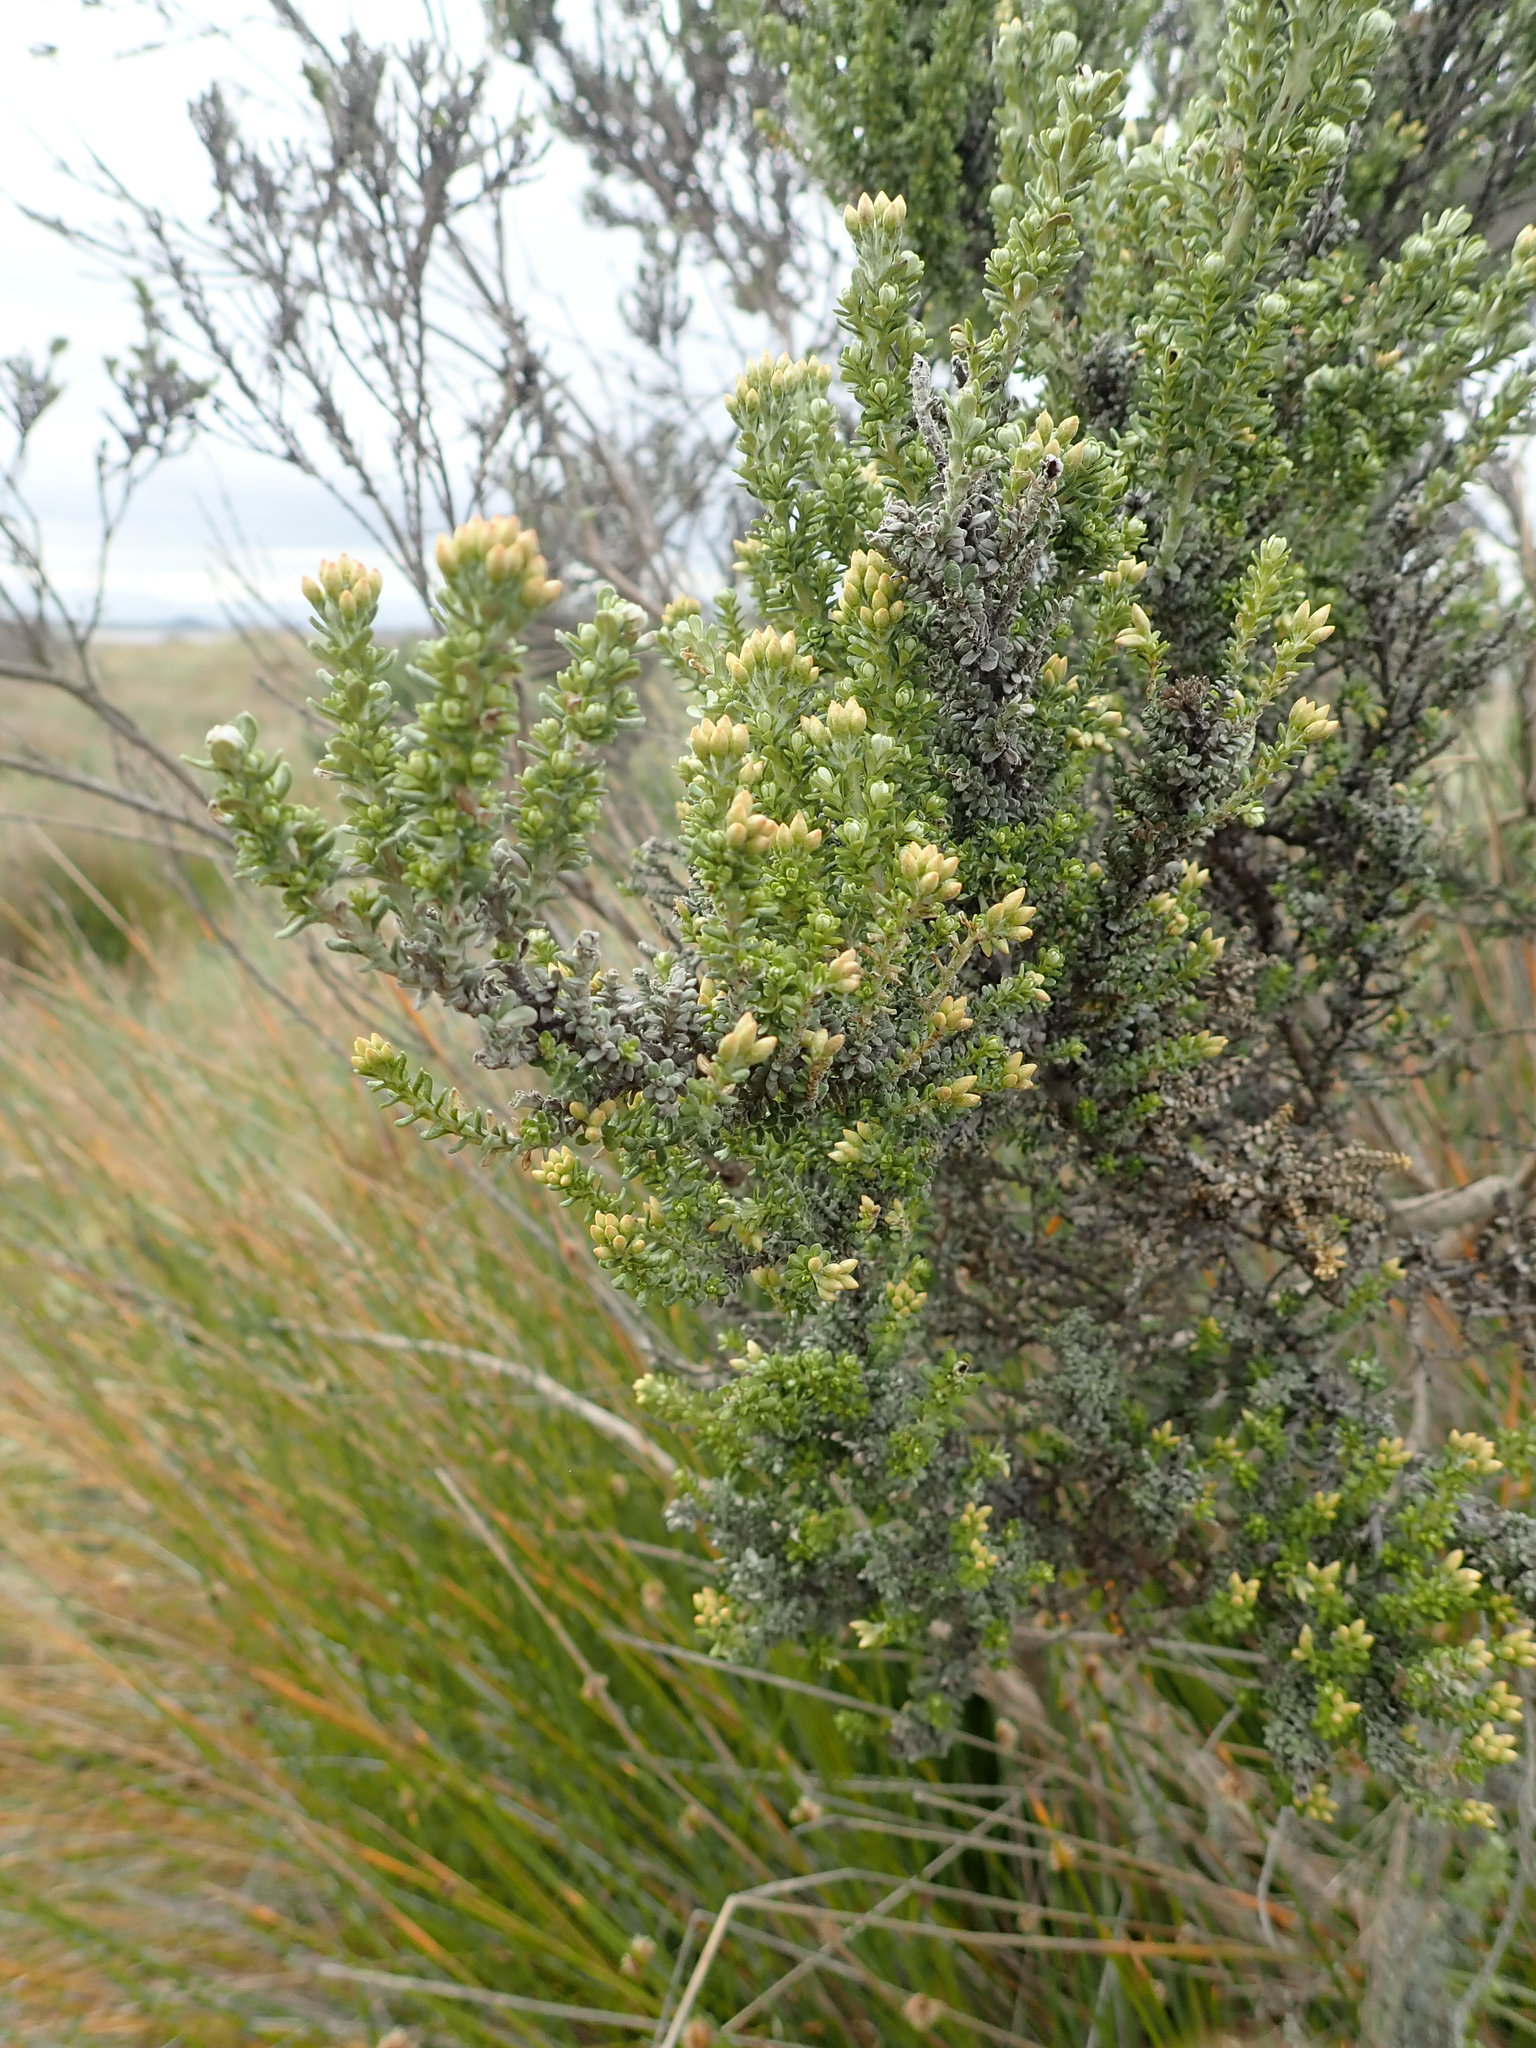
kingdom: Plantae
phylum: Tracheophyta
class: Magnoliopsida
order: Asterales
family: Asteraceae
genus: Ozothamnus
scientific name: Ozothamnus leptophyllus
